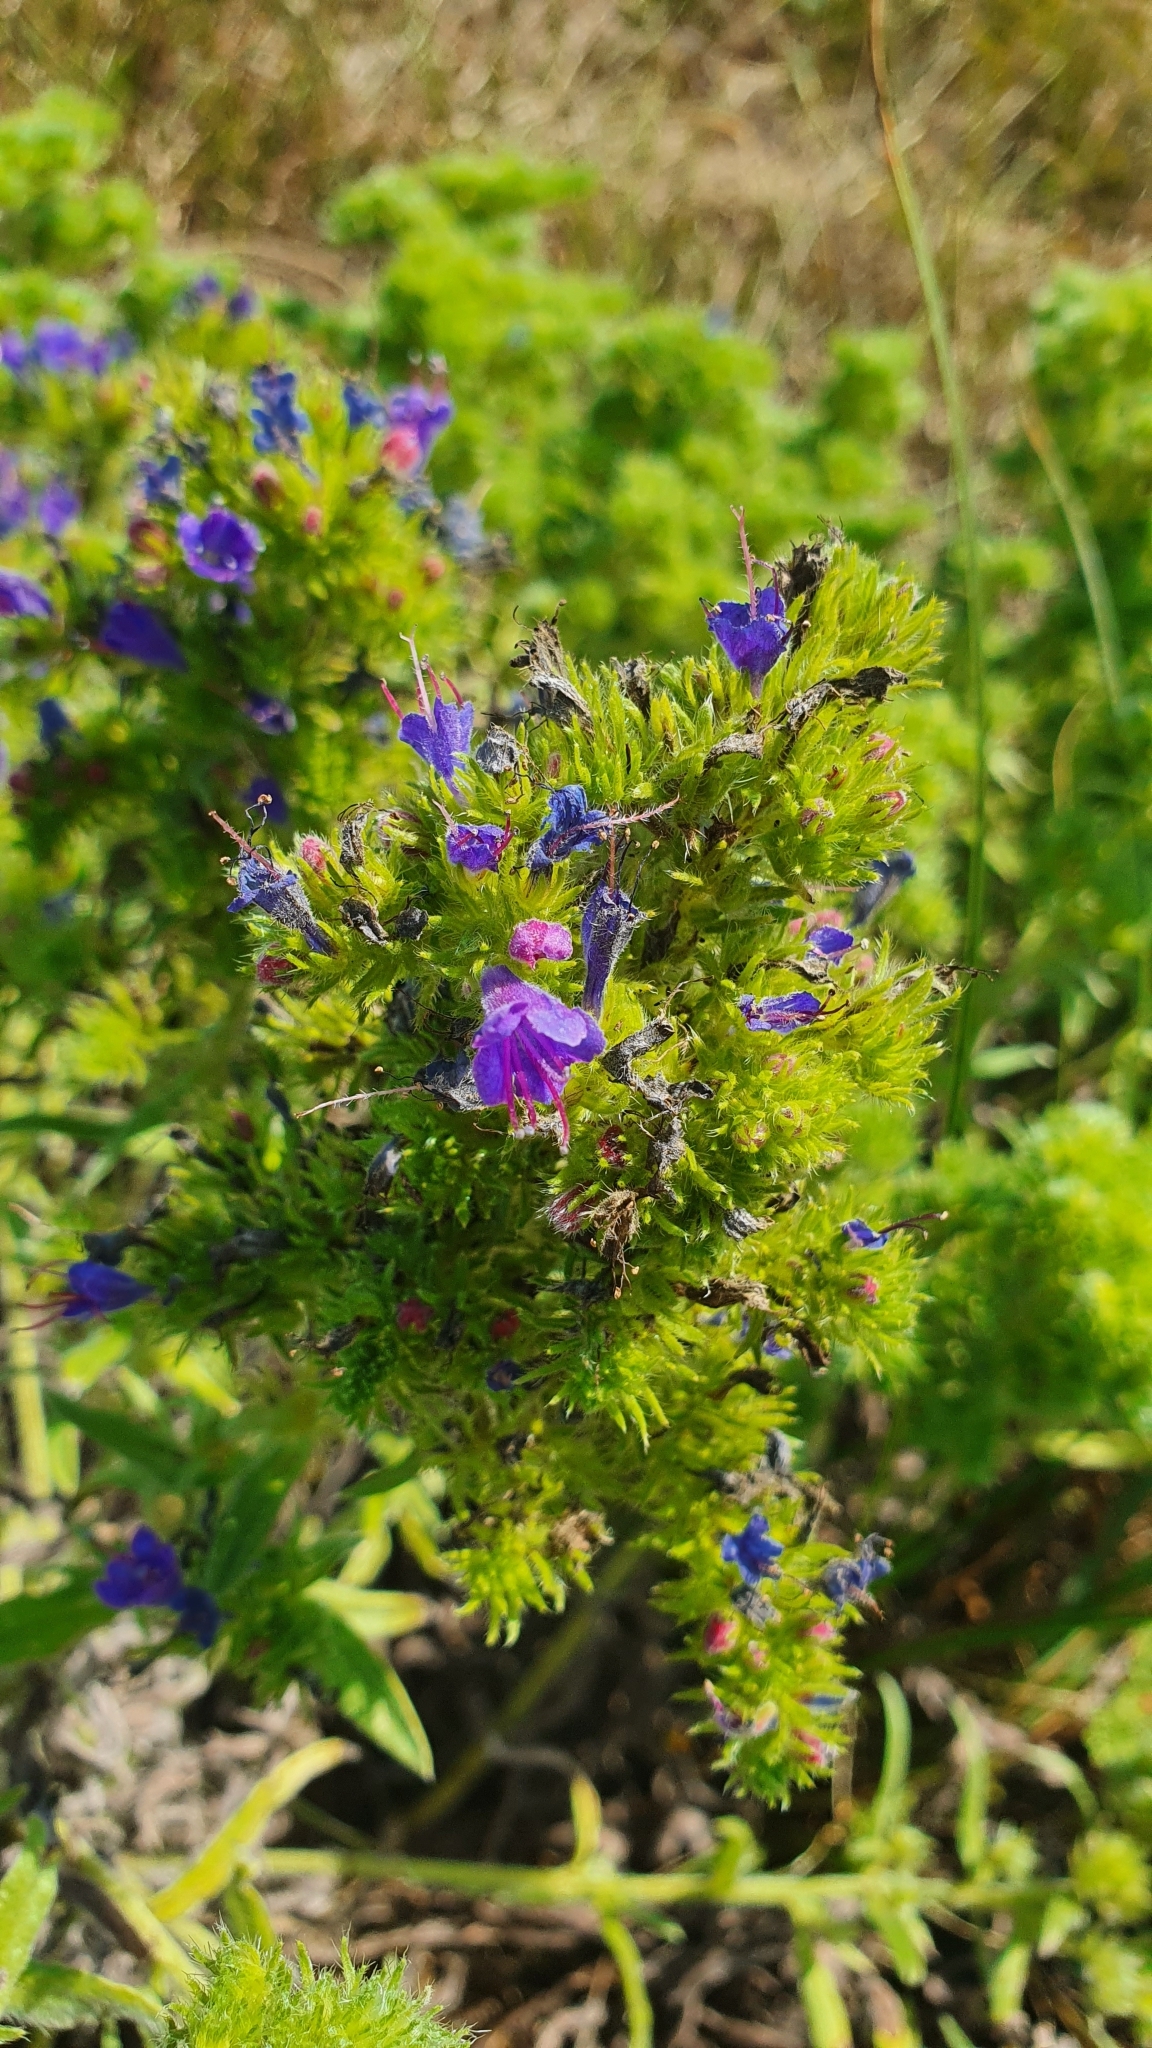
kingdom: Plantae
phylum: Tracheophyta
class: Magnoliopsida
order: Boraginales
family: Boraginaceae
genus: Echium
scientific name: Echium vulgare
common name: Common viper's bugloss
